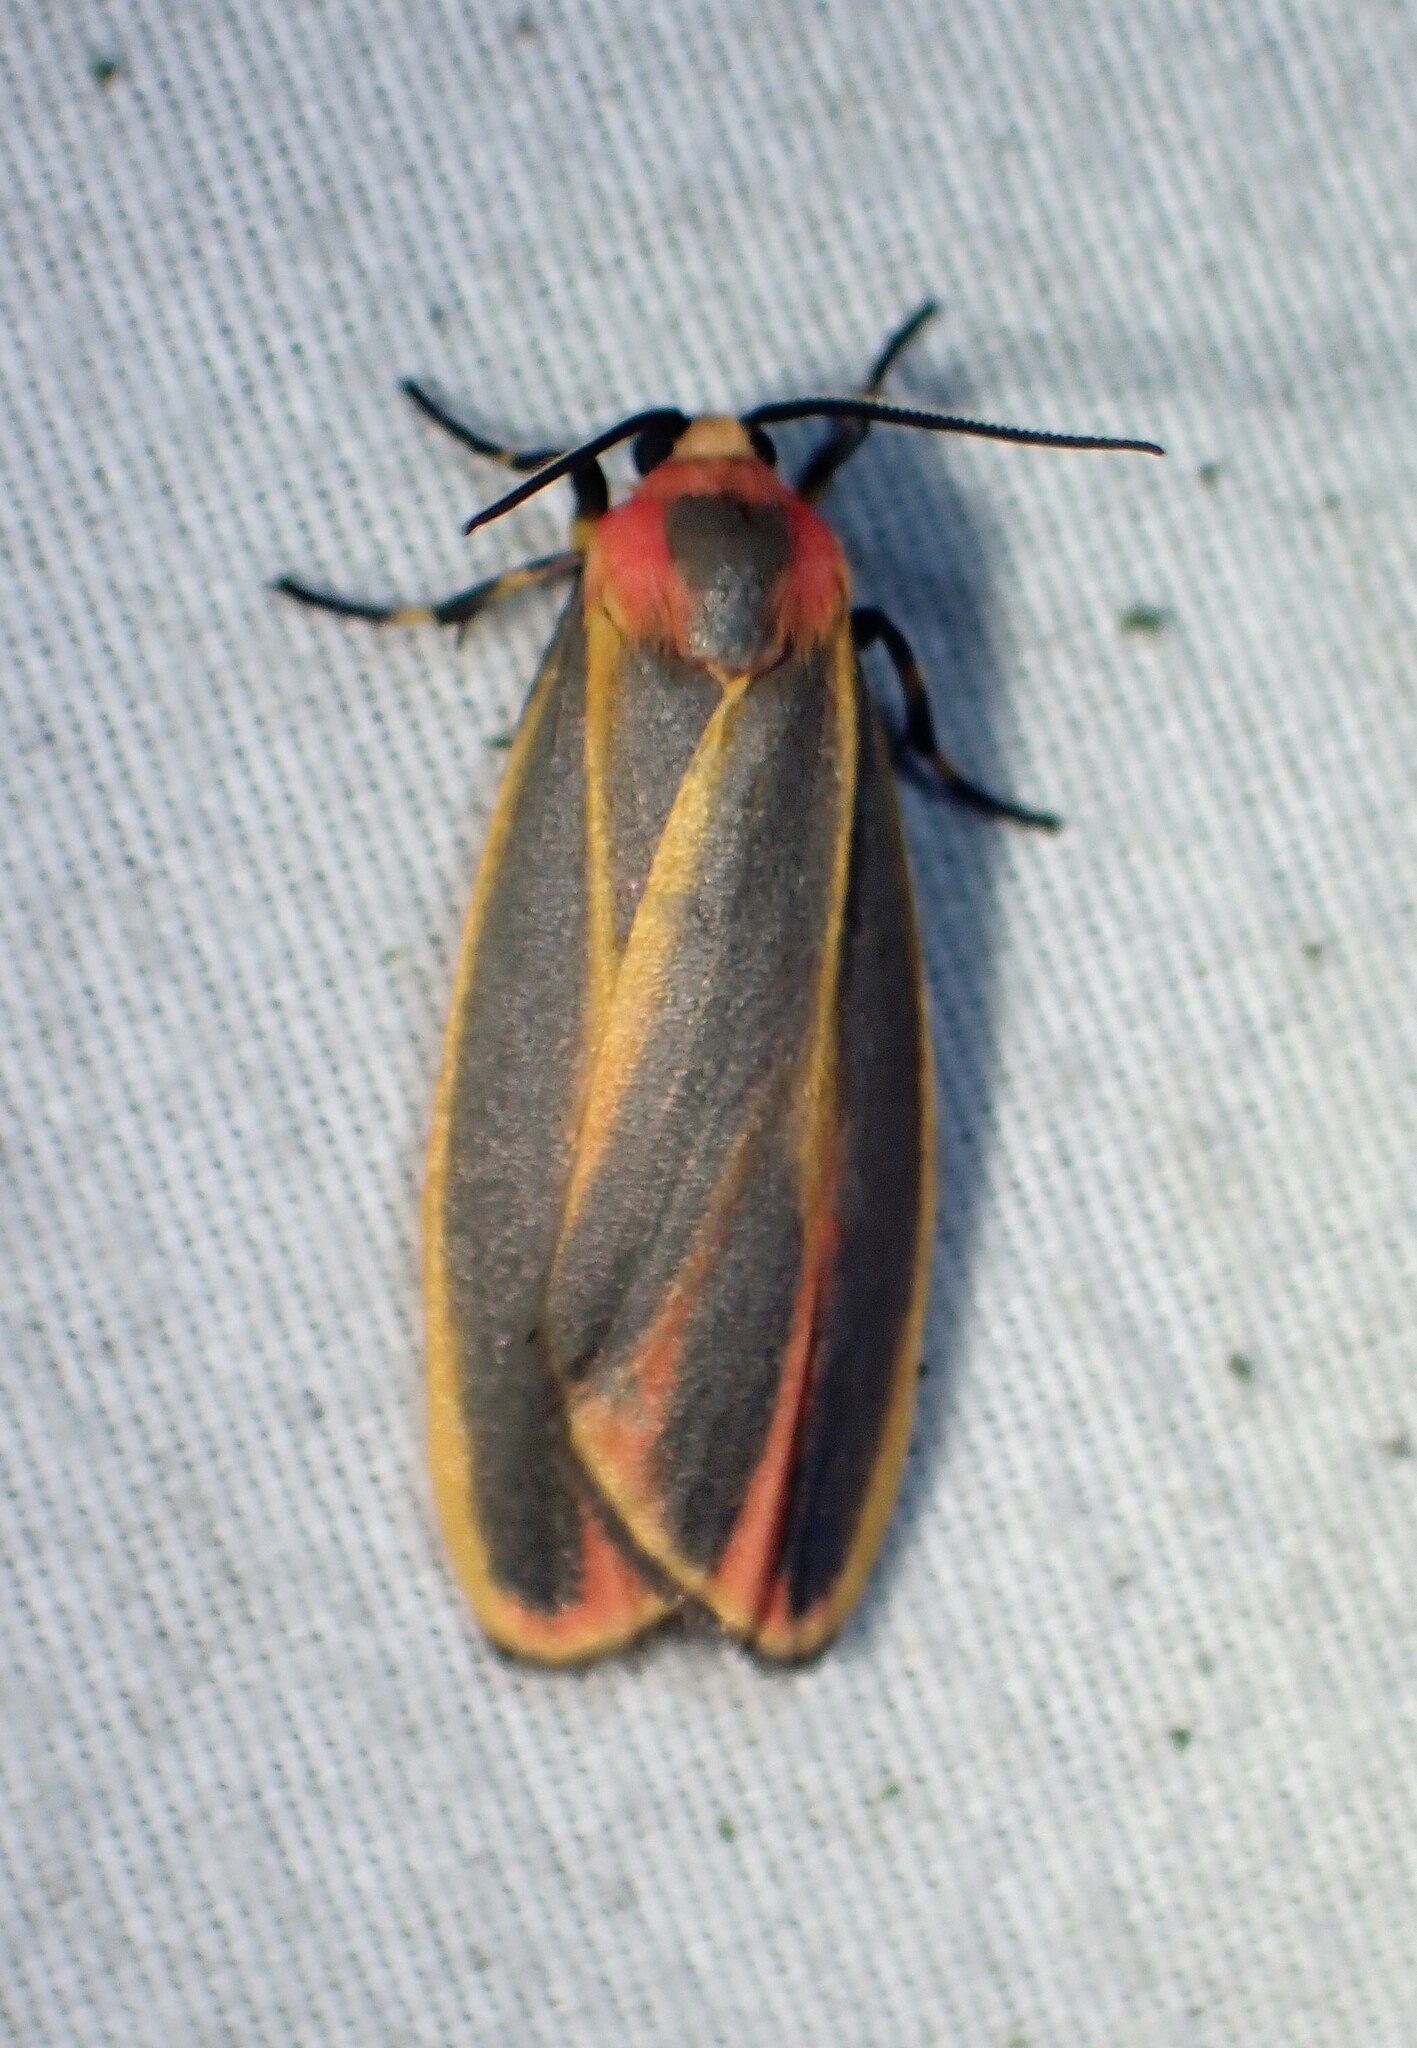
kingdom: Animalia
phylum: Arthropoda
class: Insecta
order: Lepidoptera
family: Erebidae
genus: Hypoprepia
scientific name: Hypoprepia fucosa
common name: Painted lichen moth
